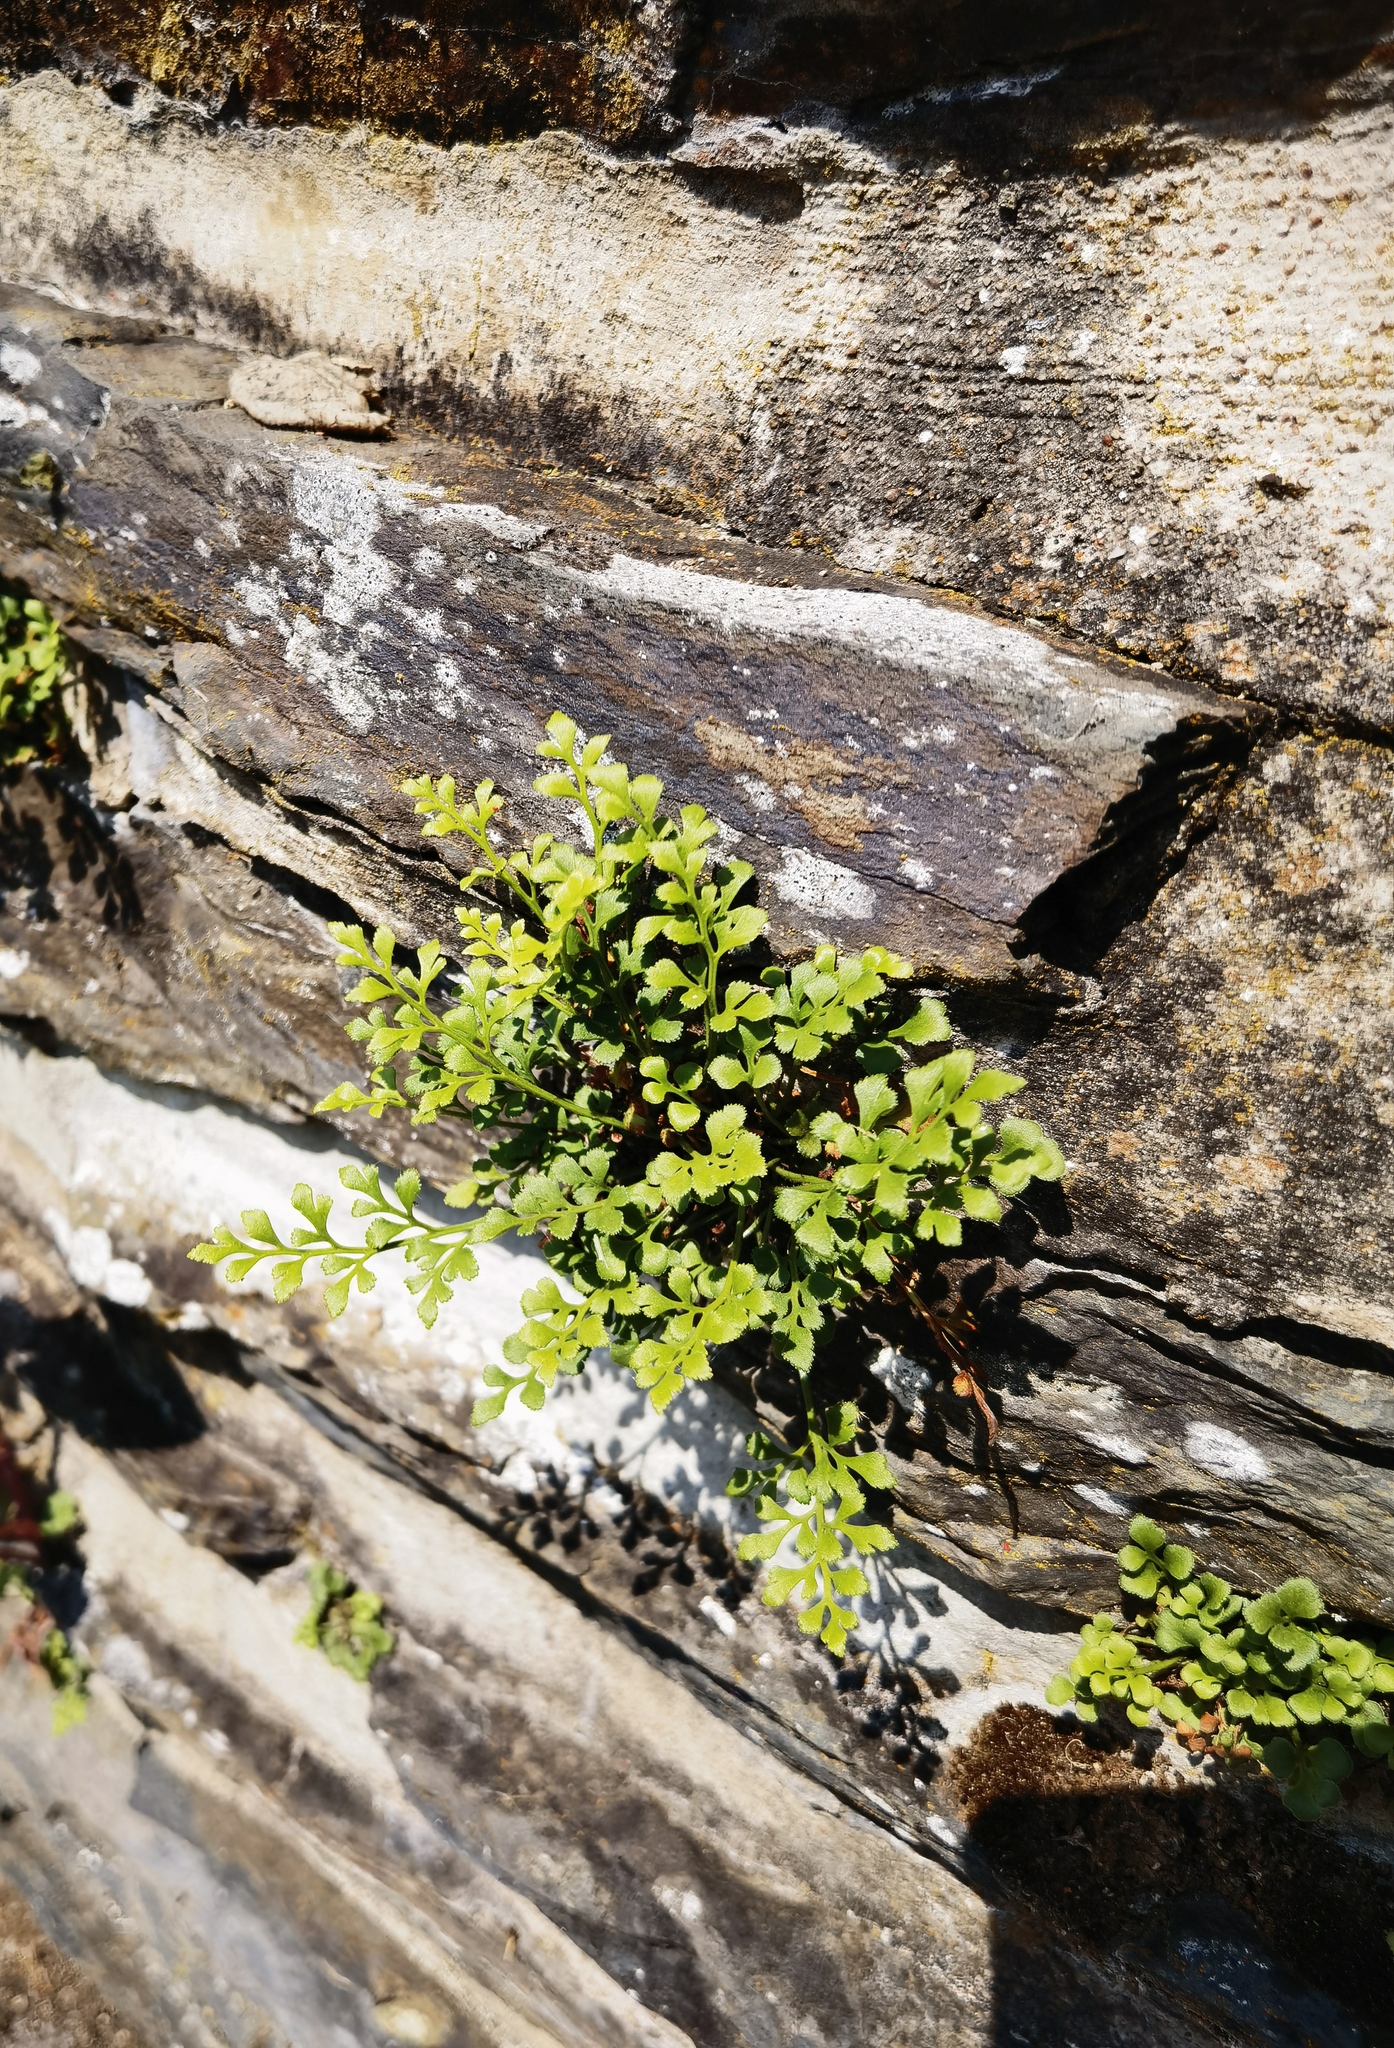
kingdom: Plantae
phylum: Tracheophyta
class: Polypodiopsida
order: Polypodiales
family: Aspleniaceae
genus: Asplenium
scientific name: Asplenium ruta-muraria
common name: Wall-rue
